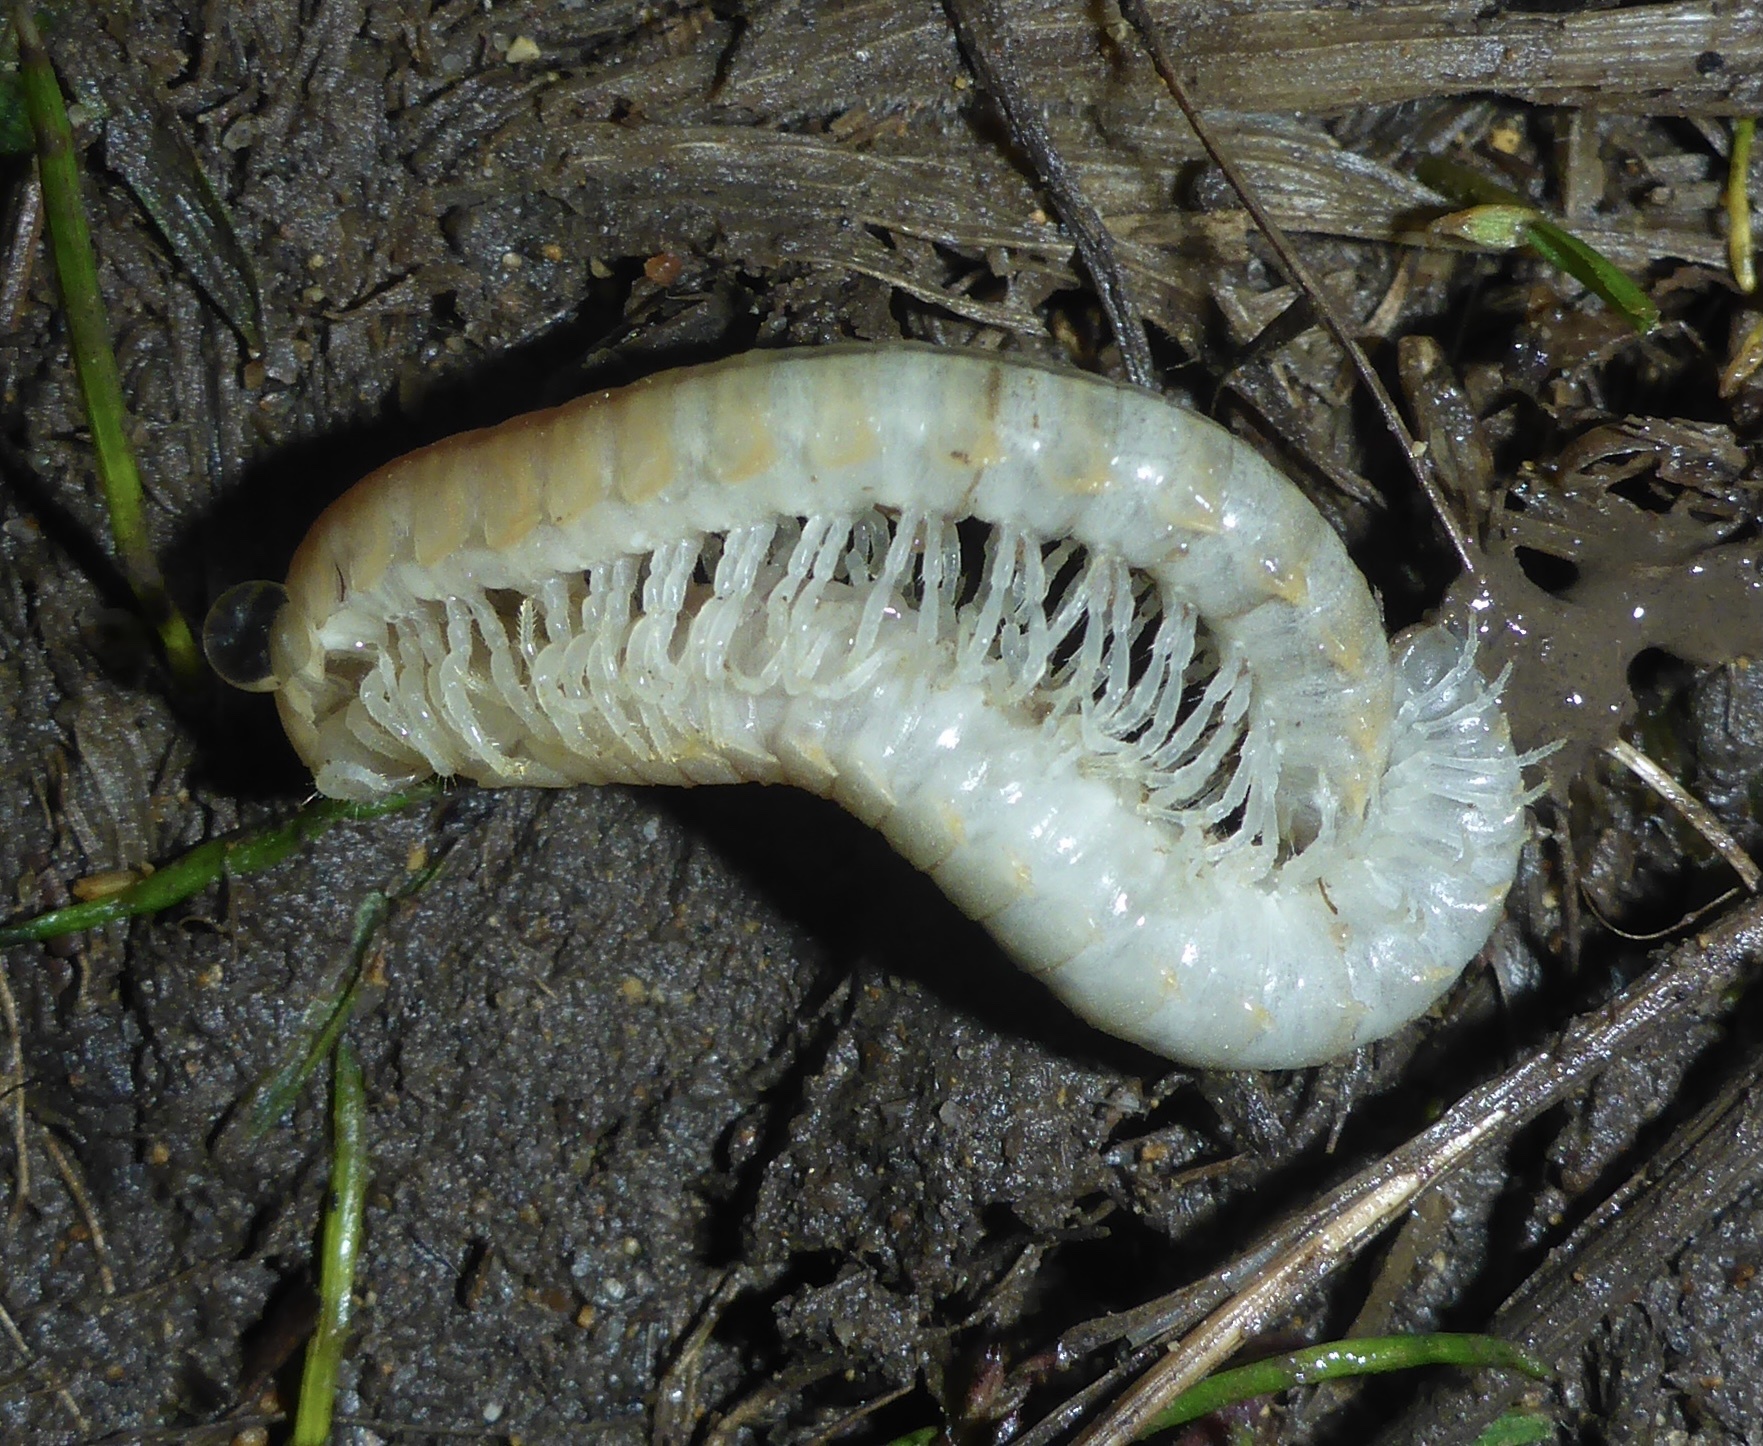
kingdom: Animalia
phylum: Arthropoda
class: Diplopoda
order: Polydesmida
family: Xystodesmidae
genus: Xystocheir
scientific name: Xystocheir dissecta
